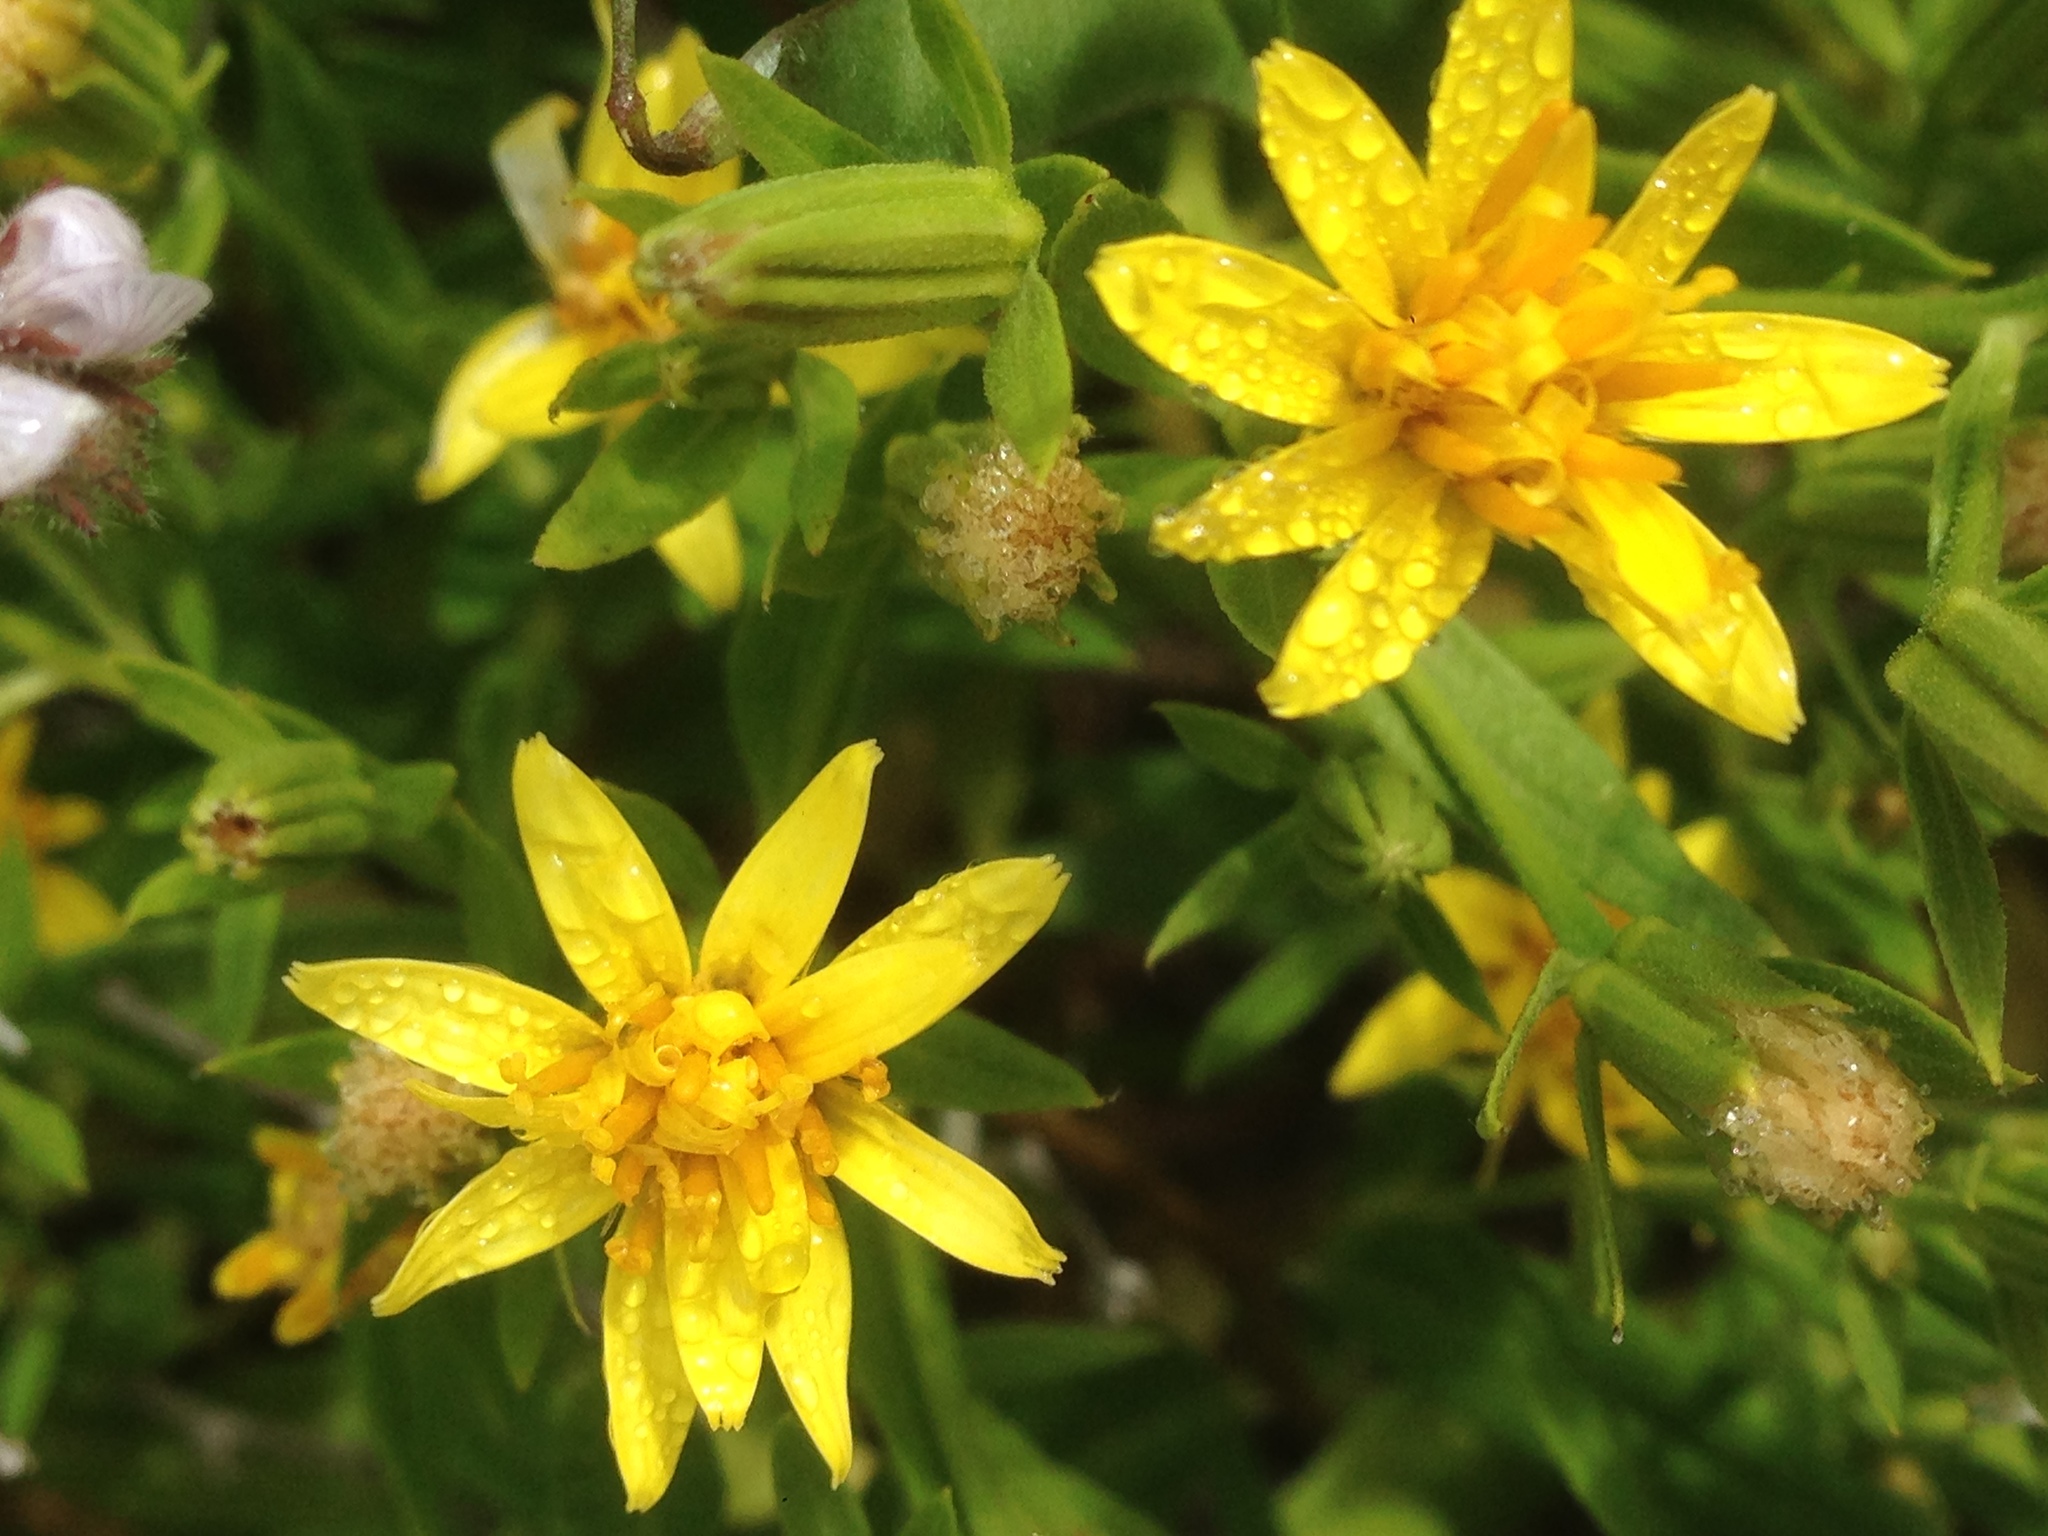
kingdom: Plantae
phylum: Tracheophyta
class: Magnoliopsida
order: Asterales
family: Asteraceae
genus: Trixis
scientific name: Trixis californica
